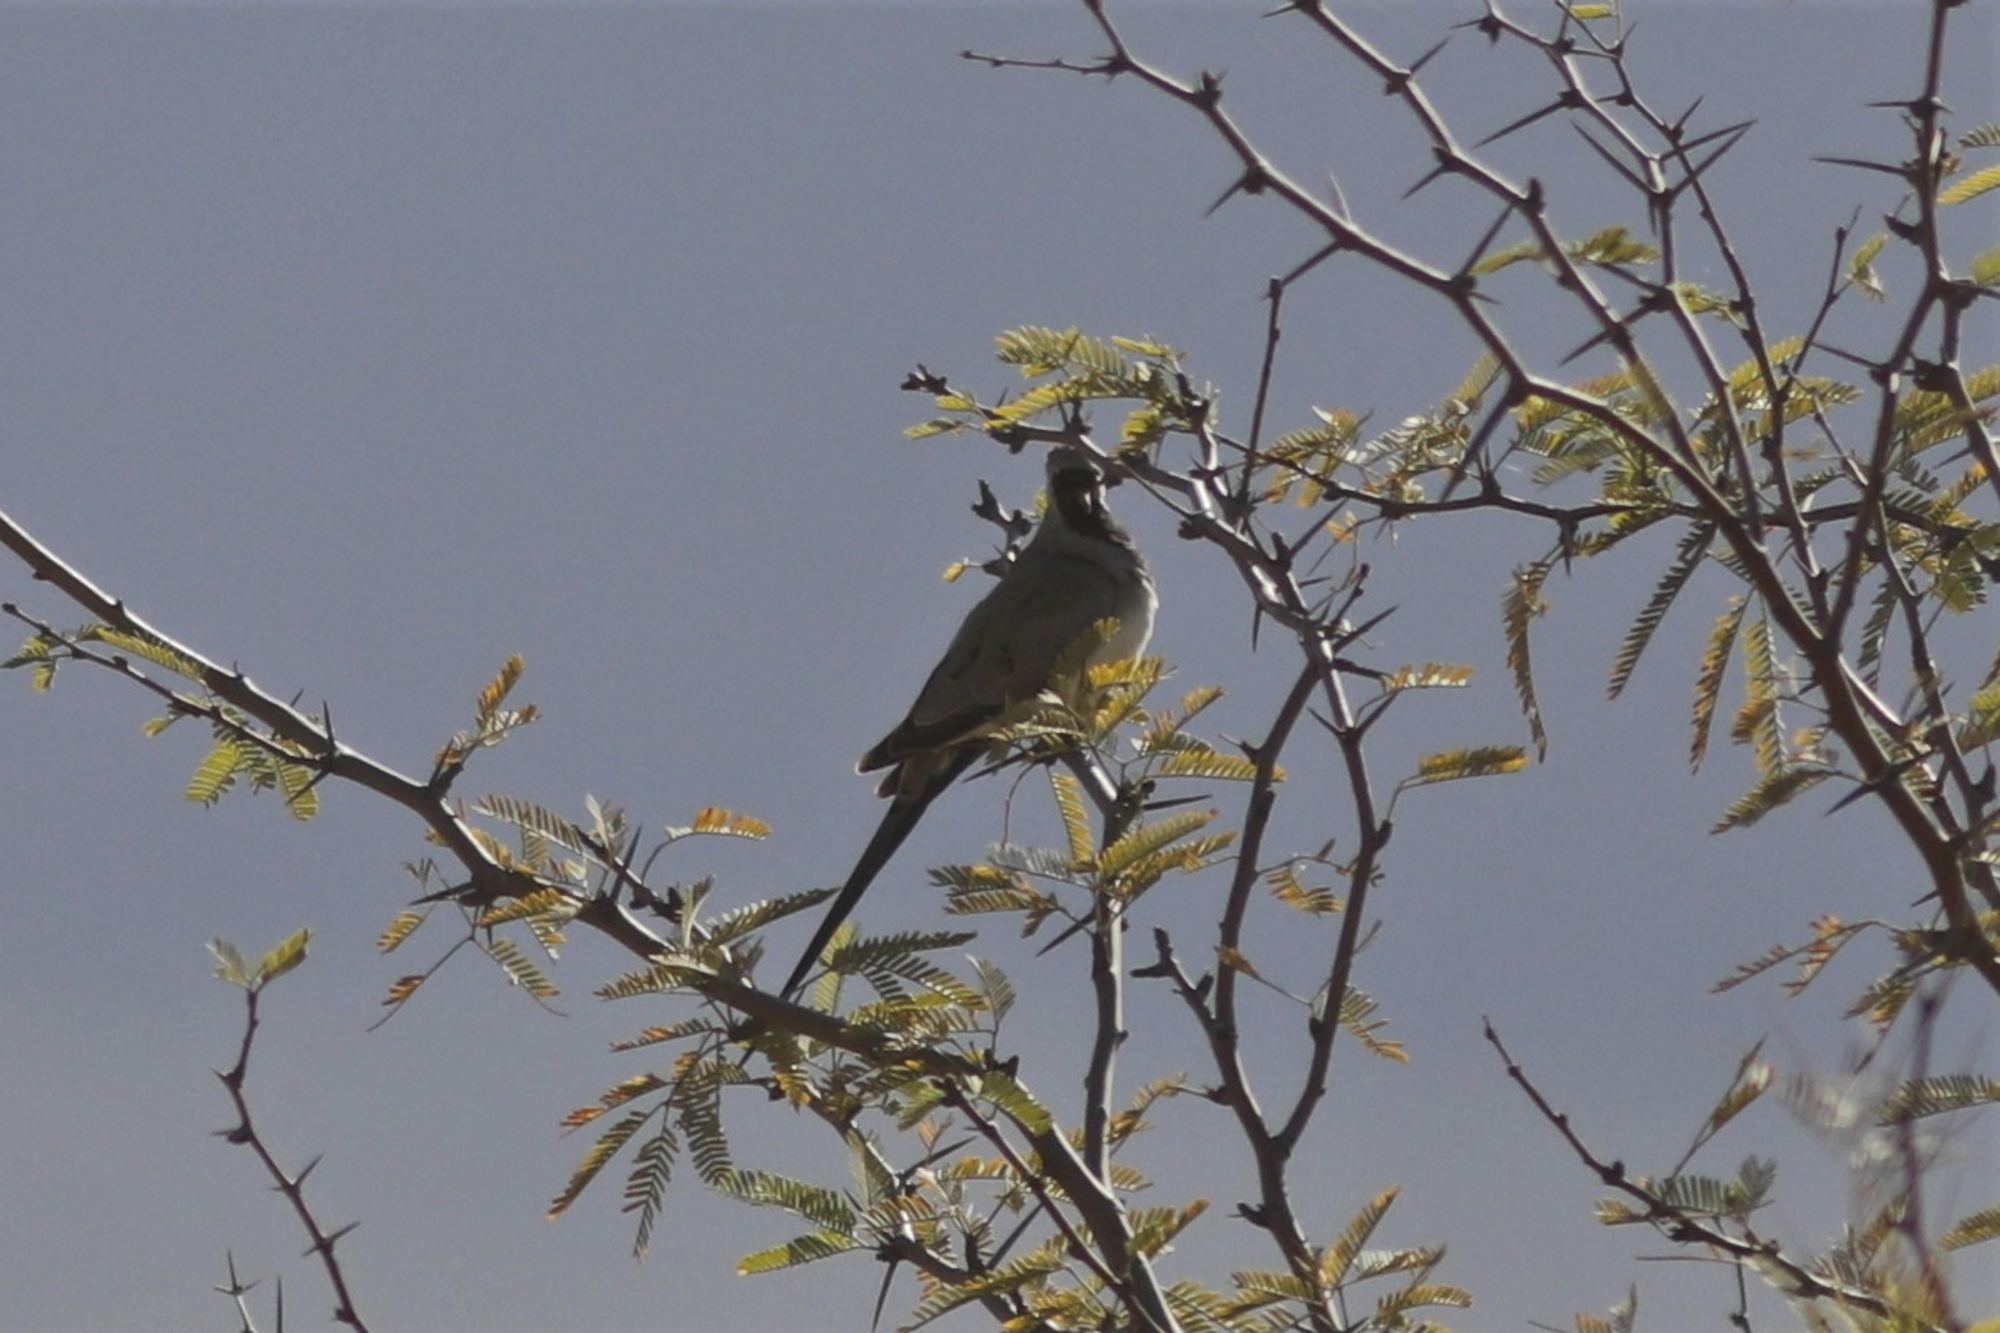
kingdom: Animalia
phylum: Chordata
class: Aves
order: Columbiformes
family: Columbidae
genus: Oena
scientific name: Oena capensis
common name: Namaqua dove
